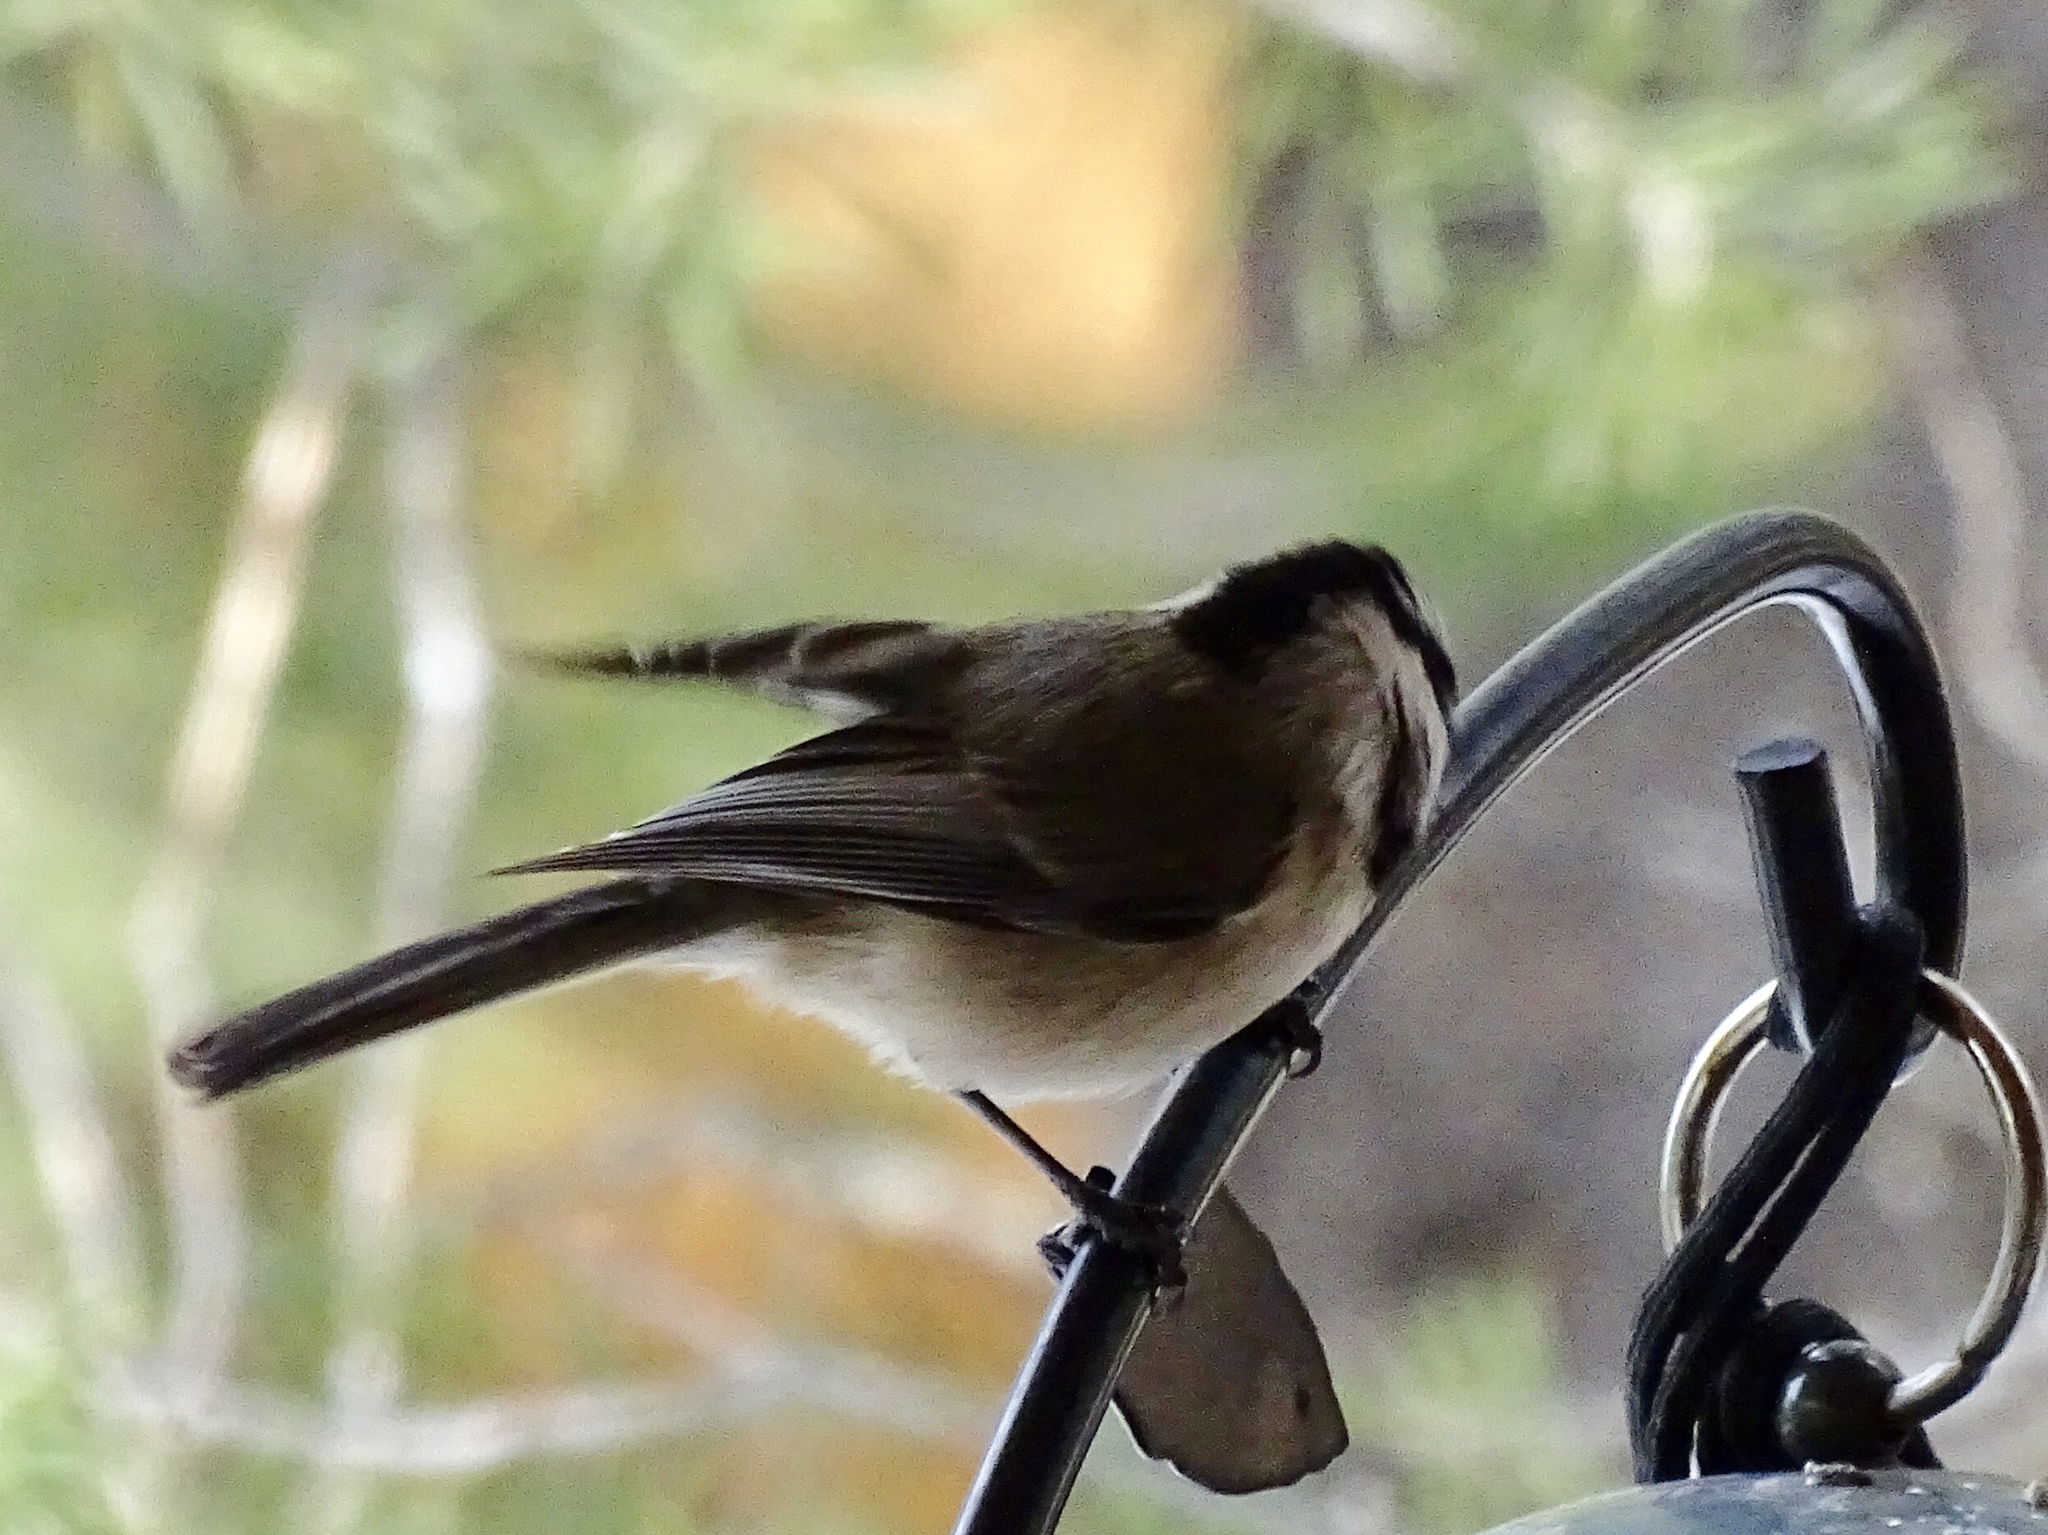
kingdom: Animalia
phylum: Chordata
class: Aves
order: Passeriformes
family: Paridae
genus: Poecile
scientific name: Poecile gambeli
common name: Mountain chickadee
